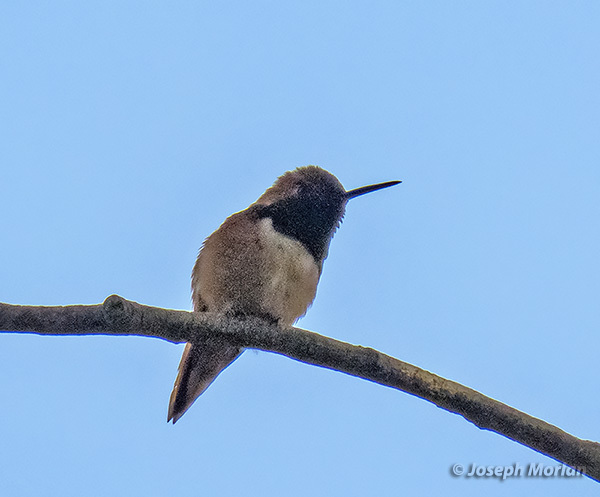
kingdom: Animalia
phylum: Chordata
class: Aves
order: Apodiformes
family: Trochilidae
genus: Selasphorus
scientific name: Selasphorus sasin
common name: Allen's hummingbird
